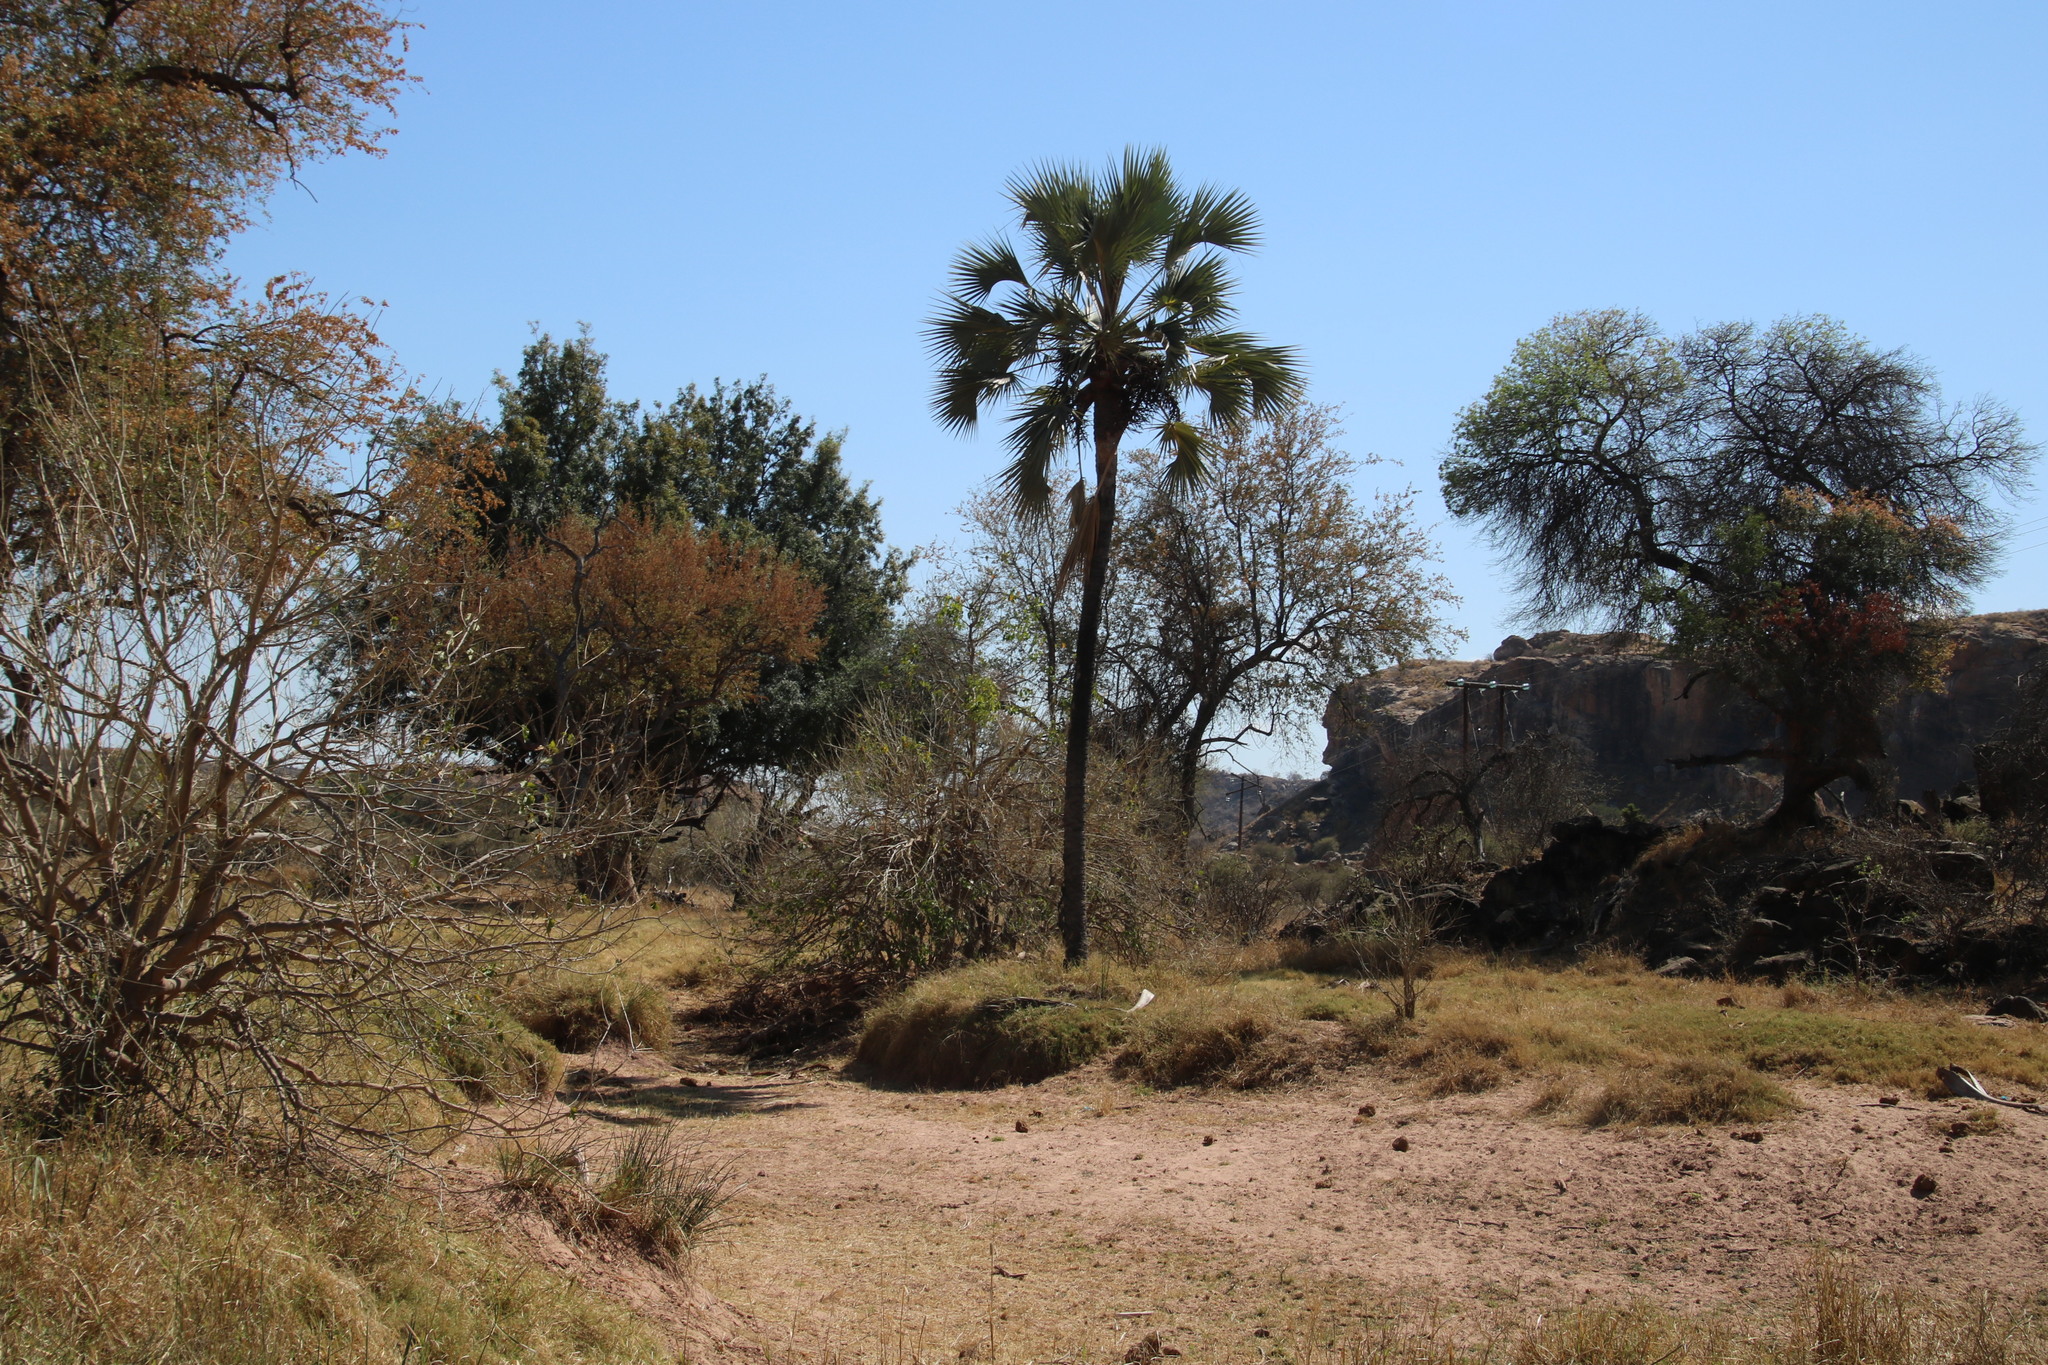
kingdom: Plantae
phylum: Tracheophyta
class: Liliopsida
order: Arecales
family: Arecaceae
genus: Hyphaene
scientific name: Hyphaene petersiana
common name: African ivory nut palm
